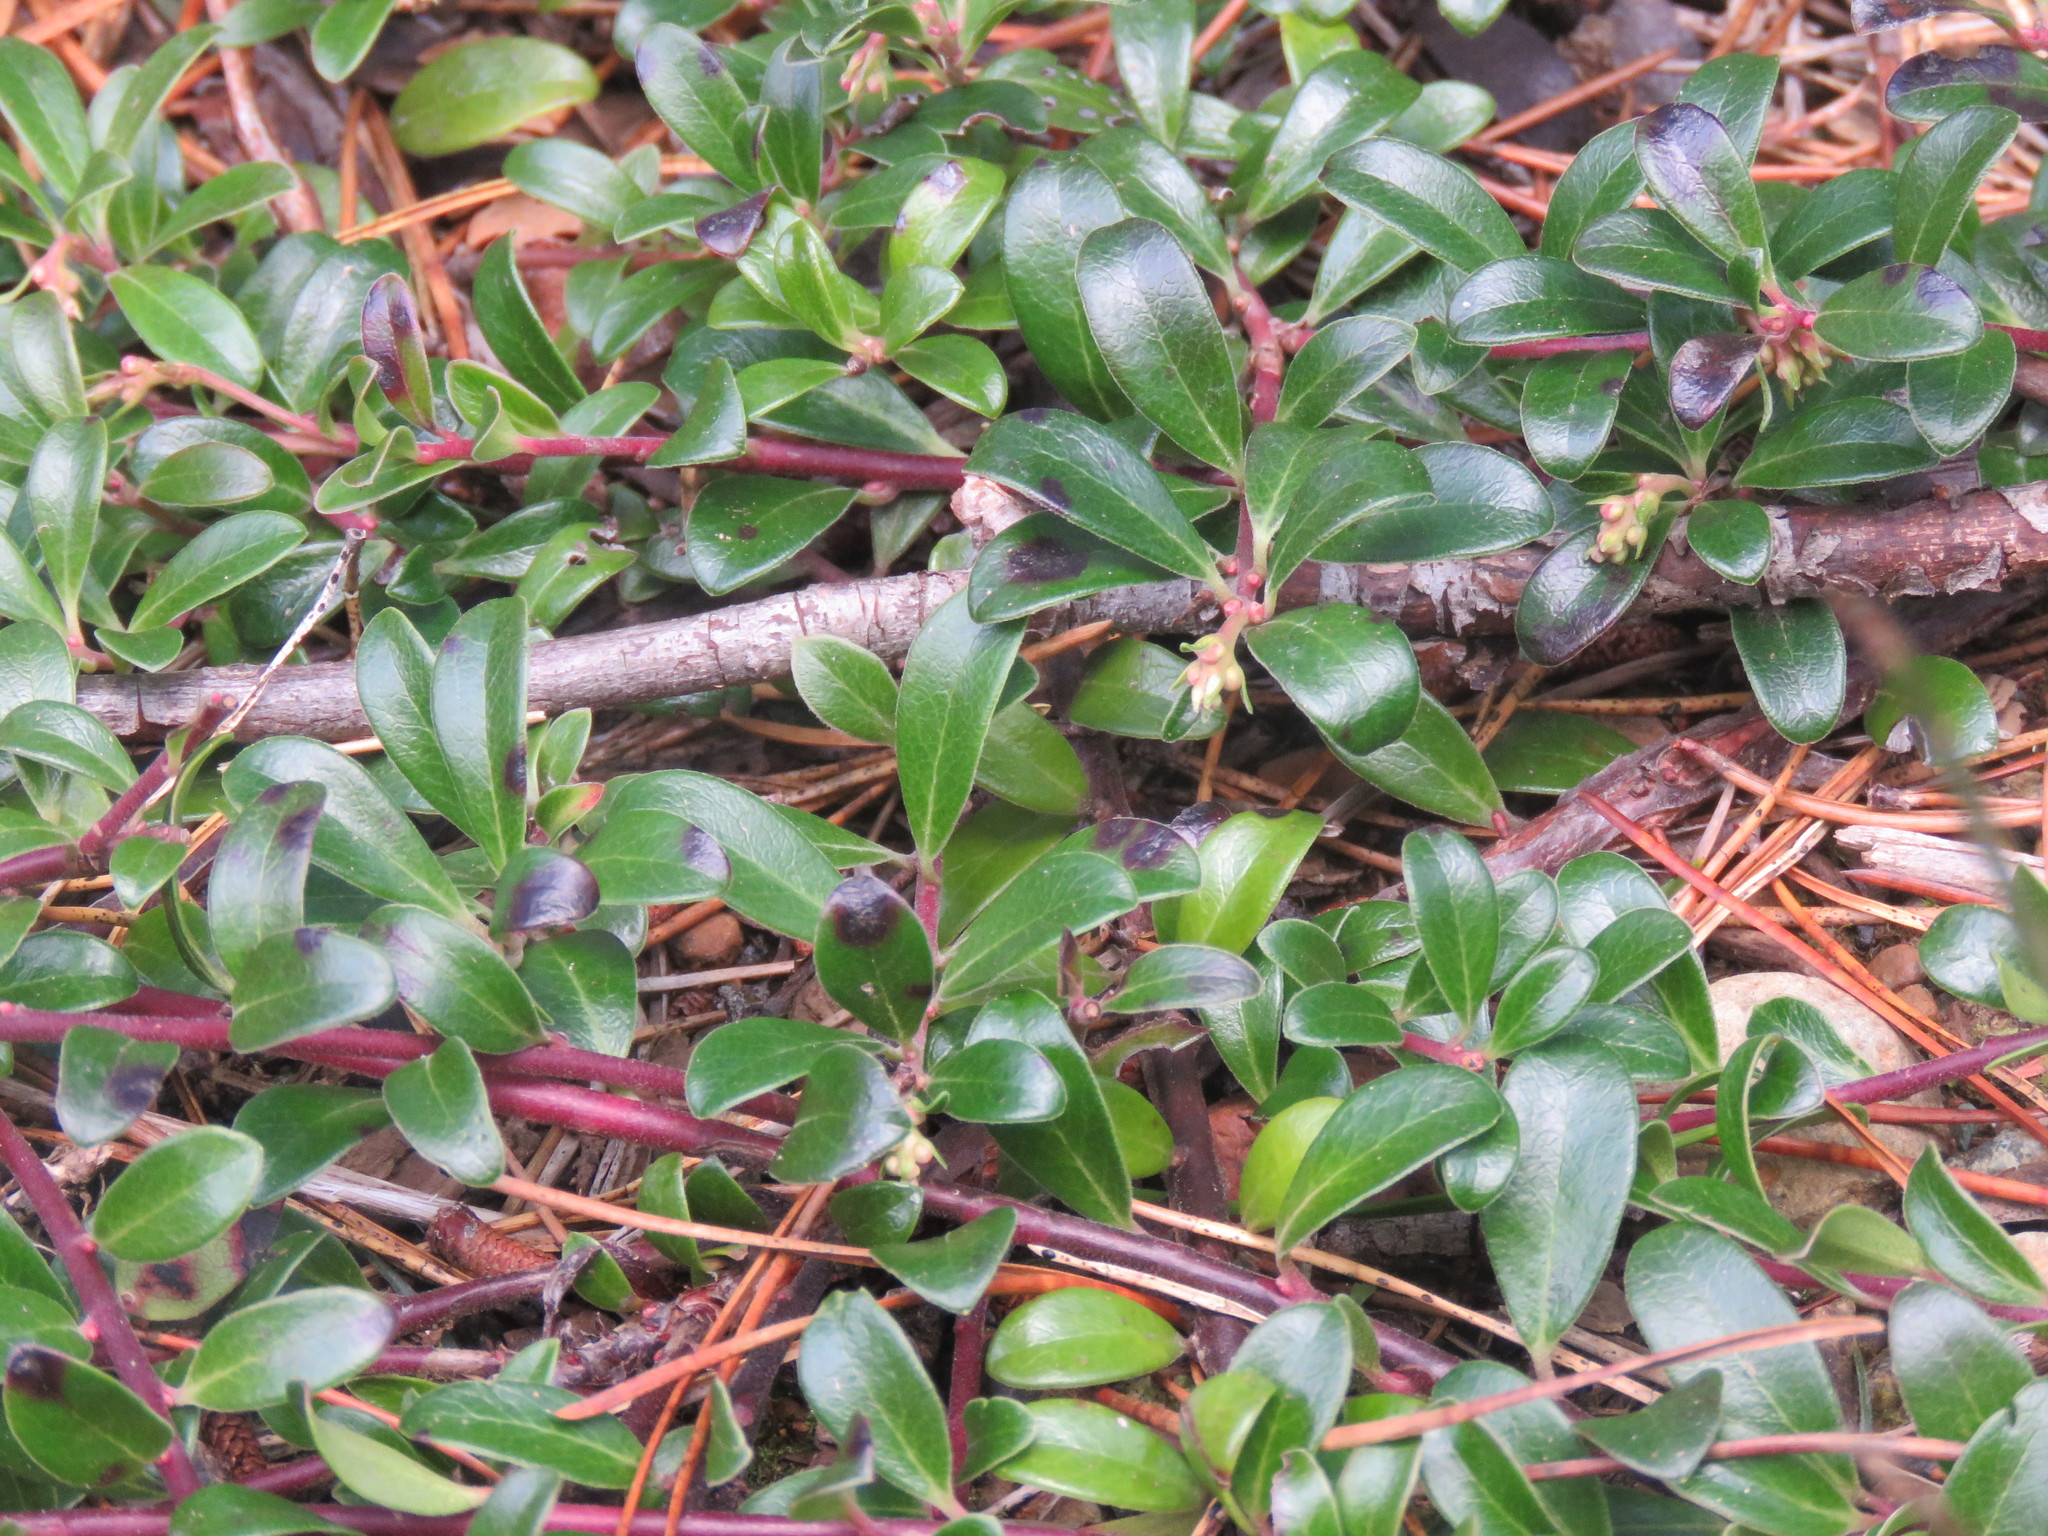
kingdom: Plantae
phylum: Tracheophyta
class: Magnoliopsida
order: Ericales
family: Ericaceae
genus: Arctostaphylos
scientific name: Arctostaphylos uva-ursi
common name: Bearberry
